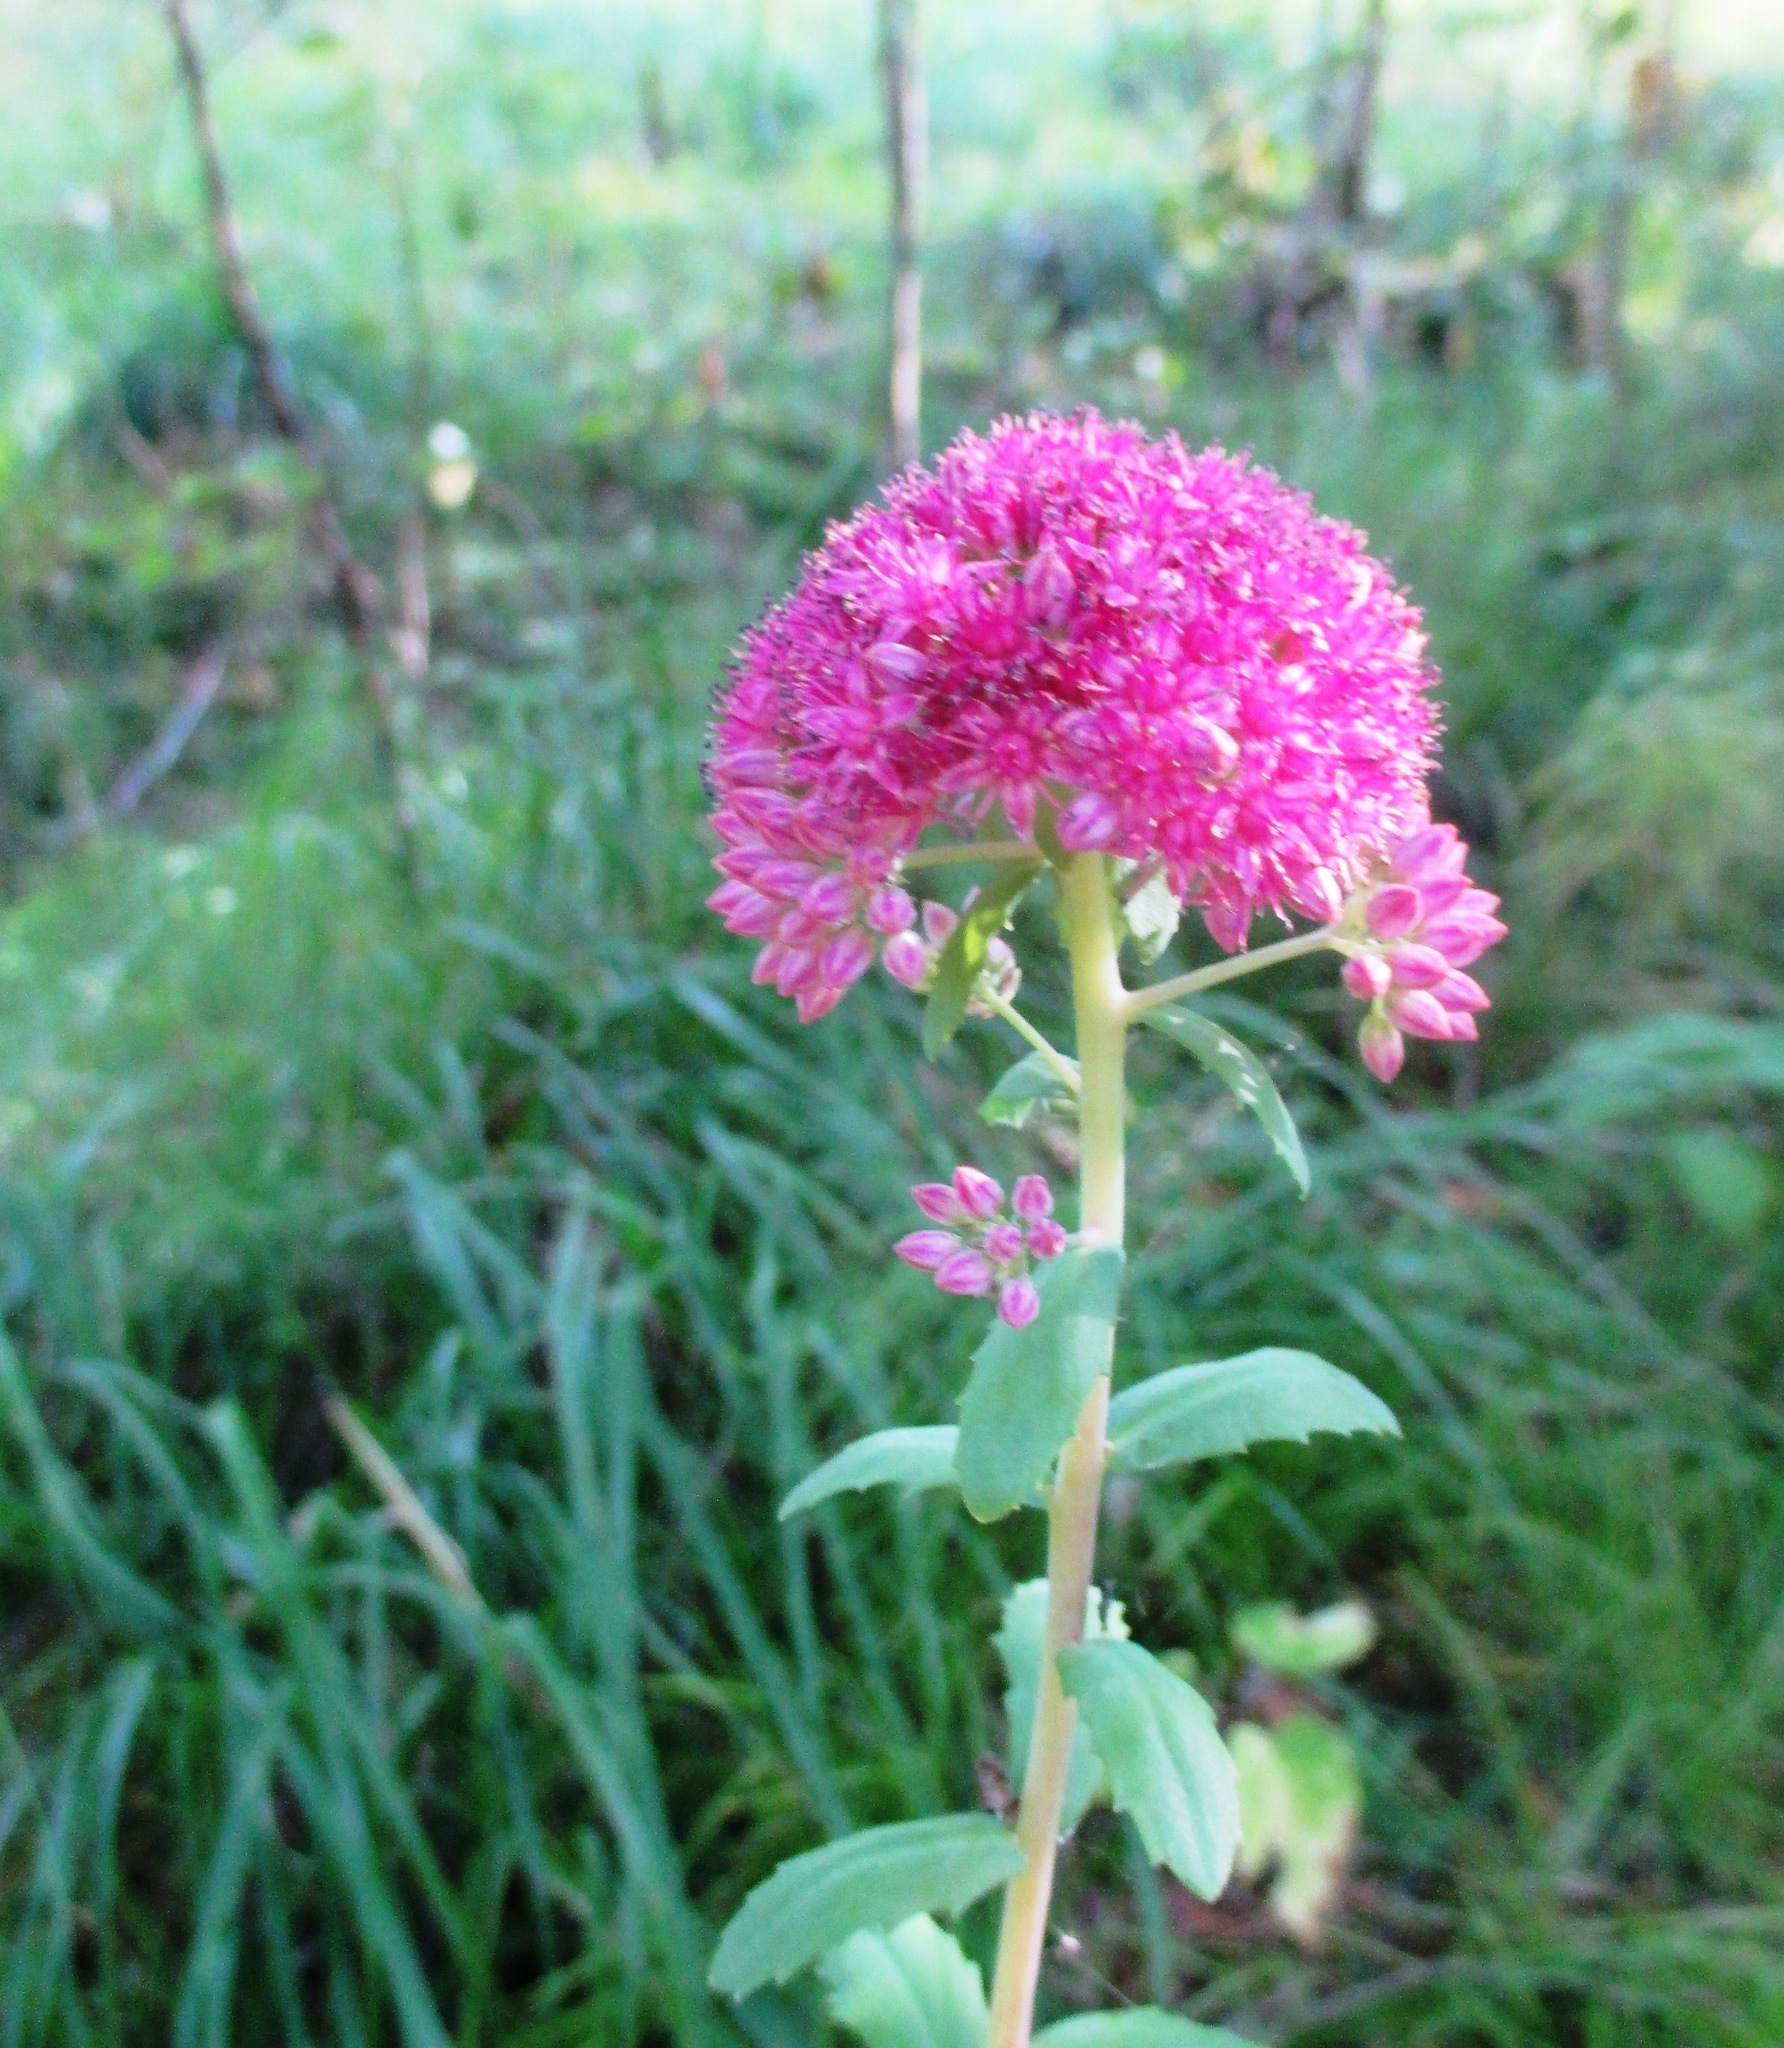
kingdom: Plantae
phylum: Tracheophyta
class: Magnoliopsida
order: Saxifragales
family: Crassulaceae
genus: Hylotelephium
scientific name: Hylotelephium telephium
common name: Live-forever
